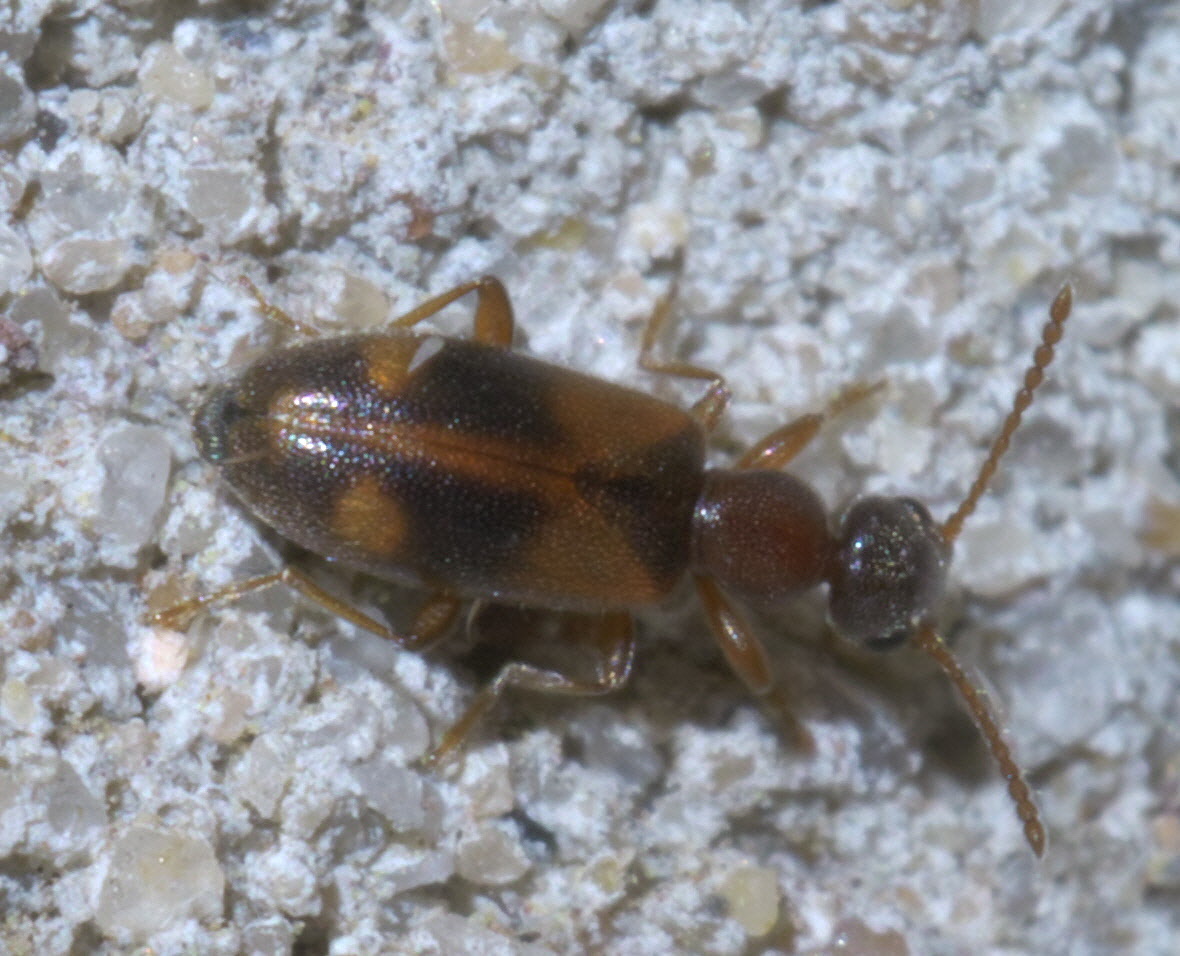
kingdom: Animalia
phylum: Arthropoda
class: Insecta
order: Coleoptera
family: Anthicidae
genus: Anthicus
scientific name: Anthicus cervinus
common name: Cloudy flower beetle
